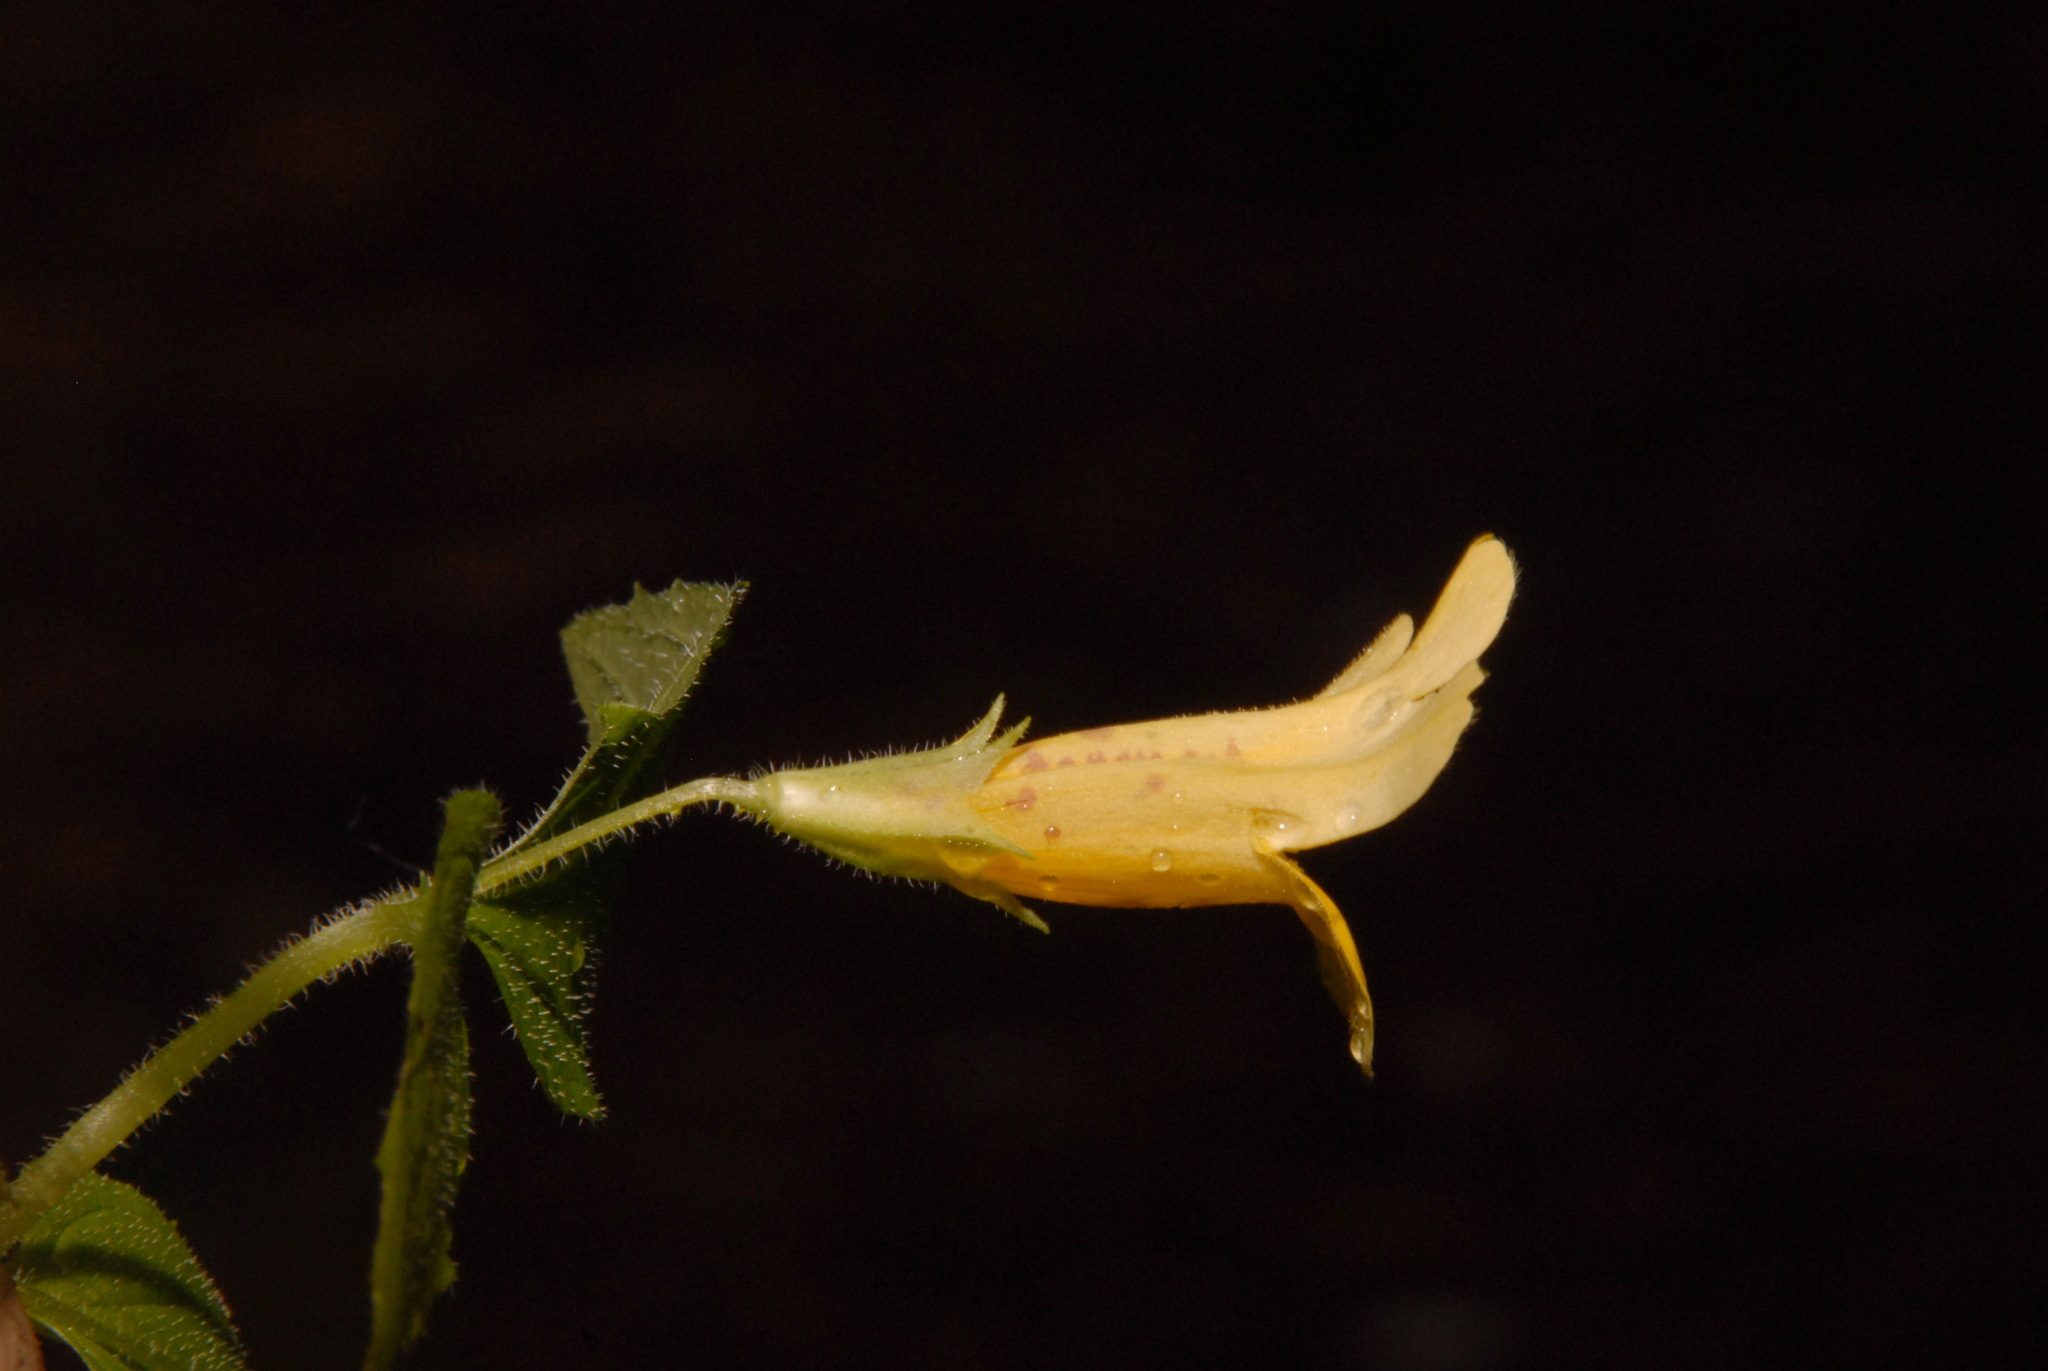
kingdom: Plantae
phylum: Tracheophyta
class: Magnoliopsida
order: Lamiales
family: Phrymaceae
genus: Erythranthe
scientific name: Erythranthe dentata
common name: Coastal monkeyflower
